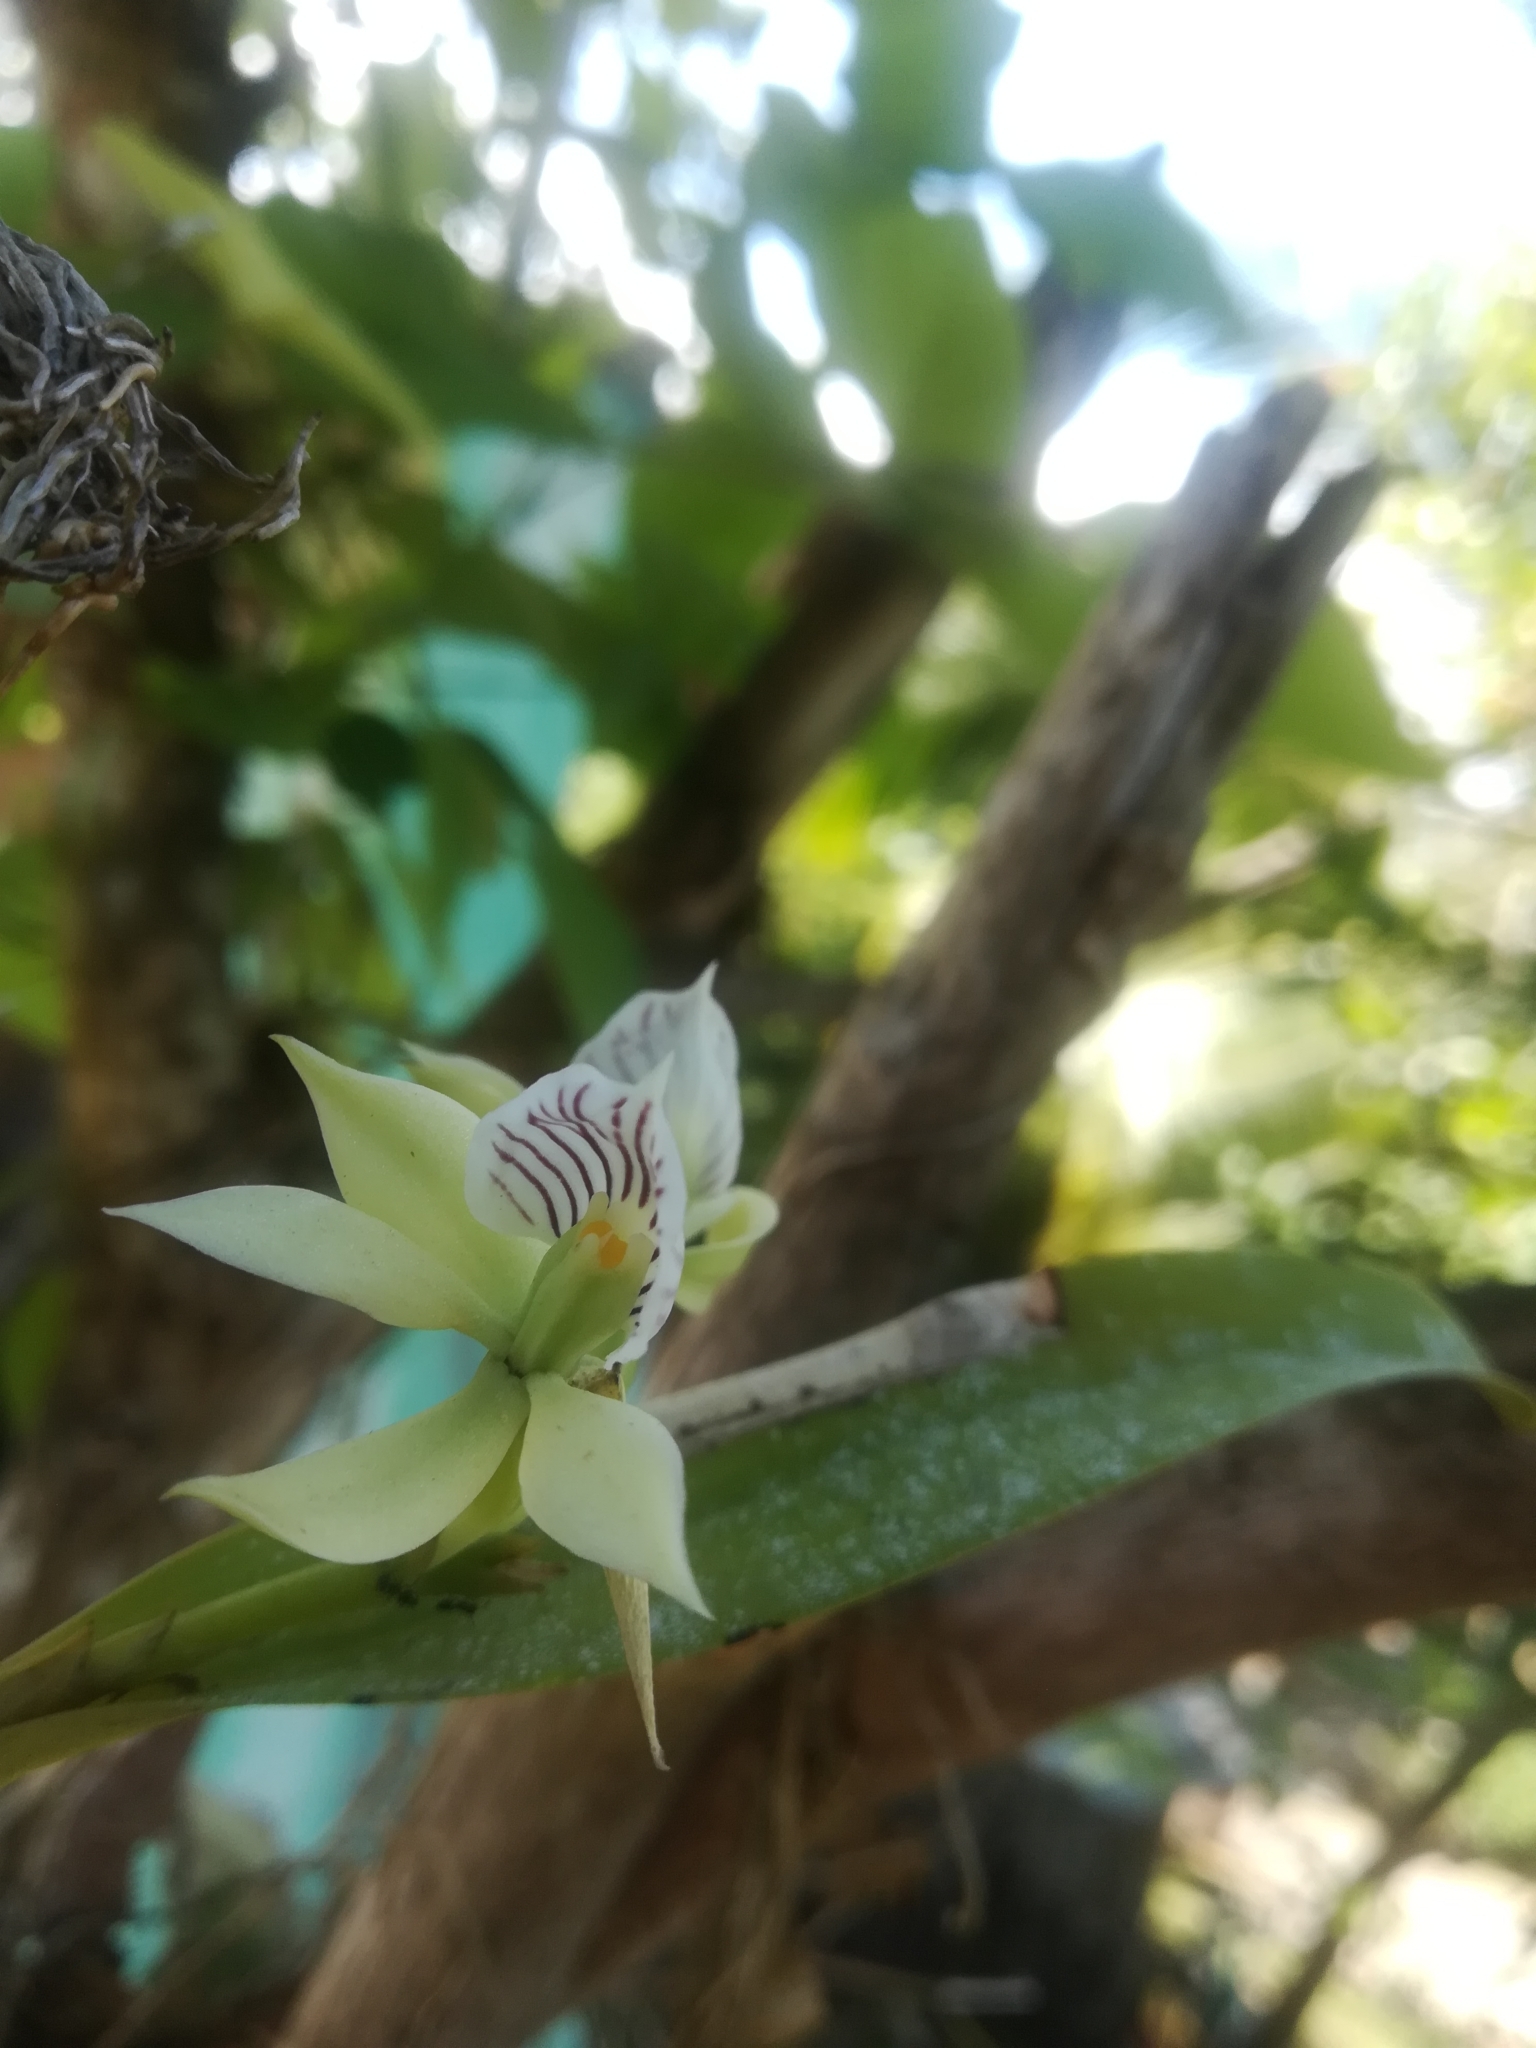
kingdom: Plantae
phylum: Tracheophyta
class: Liliopsida
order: Asparagales
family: Orchidaceae
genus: Prosthechea
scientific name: Prosthechea fragrans
